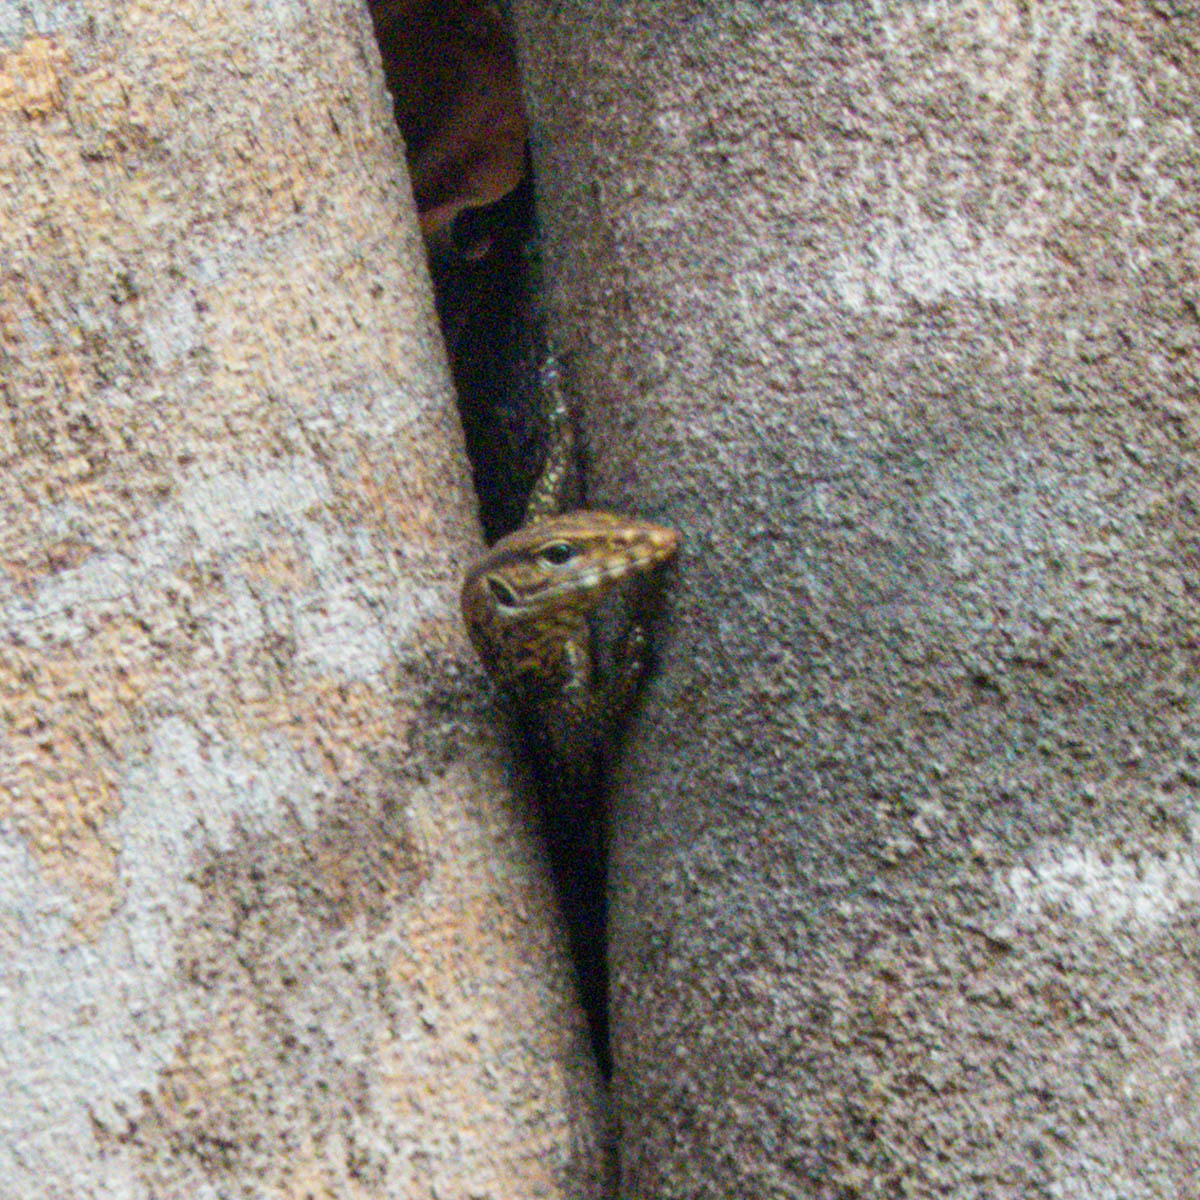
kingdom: Animalia
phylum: Chordata
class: Squamata
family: Varanidae
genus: Varanus
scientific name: Varanus nebulosus
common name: Clouded monitor
